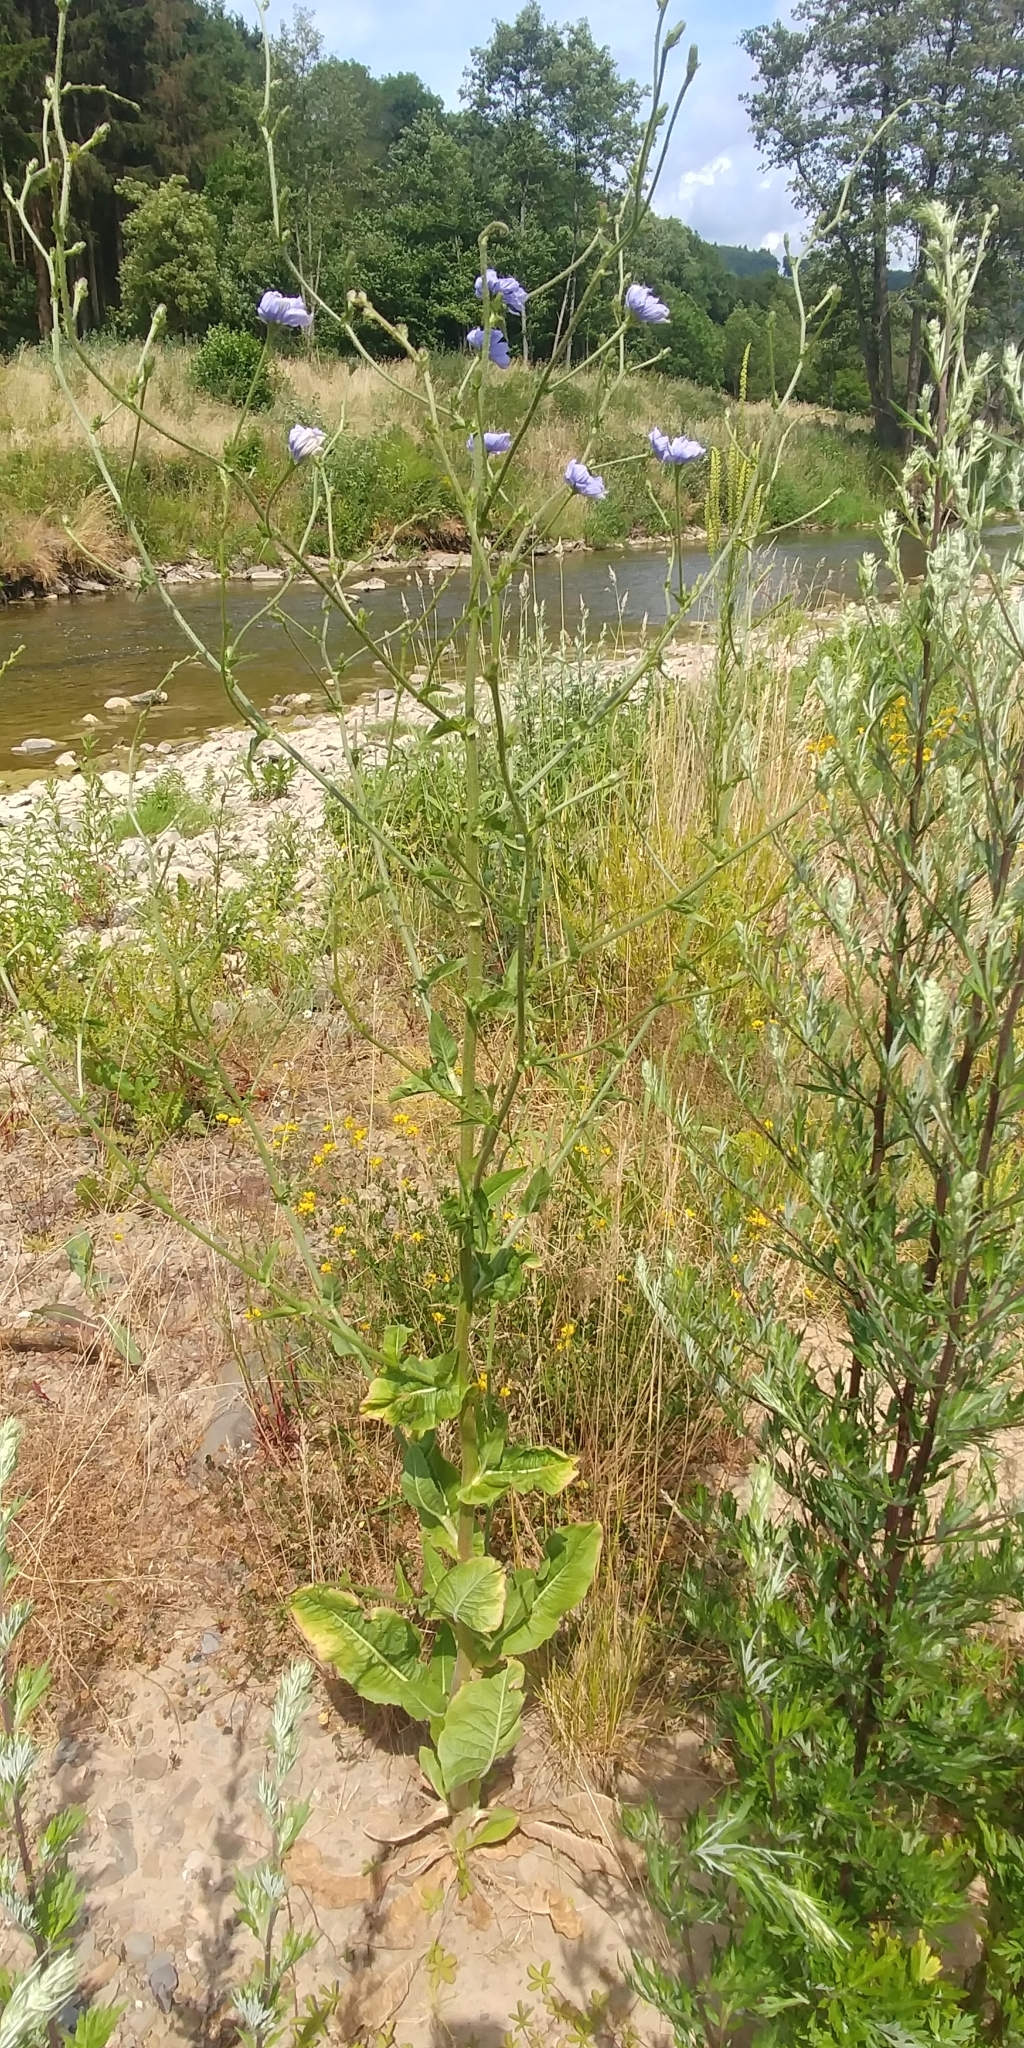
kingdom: Plantae
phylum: Tracheophyta
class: Magnoliopsida
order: Asterales
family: Asteraceae
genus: Cichorium
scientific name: Cichorium intybus
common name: Chicory
